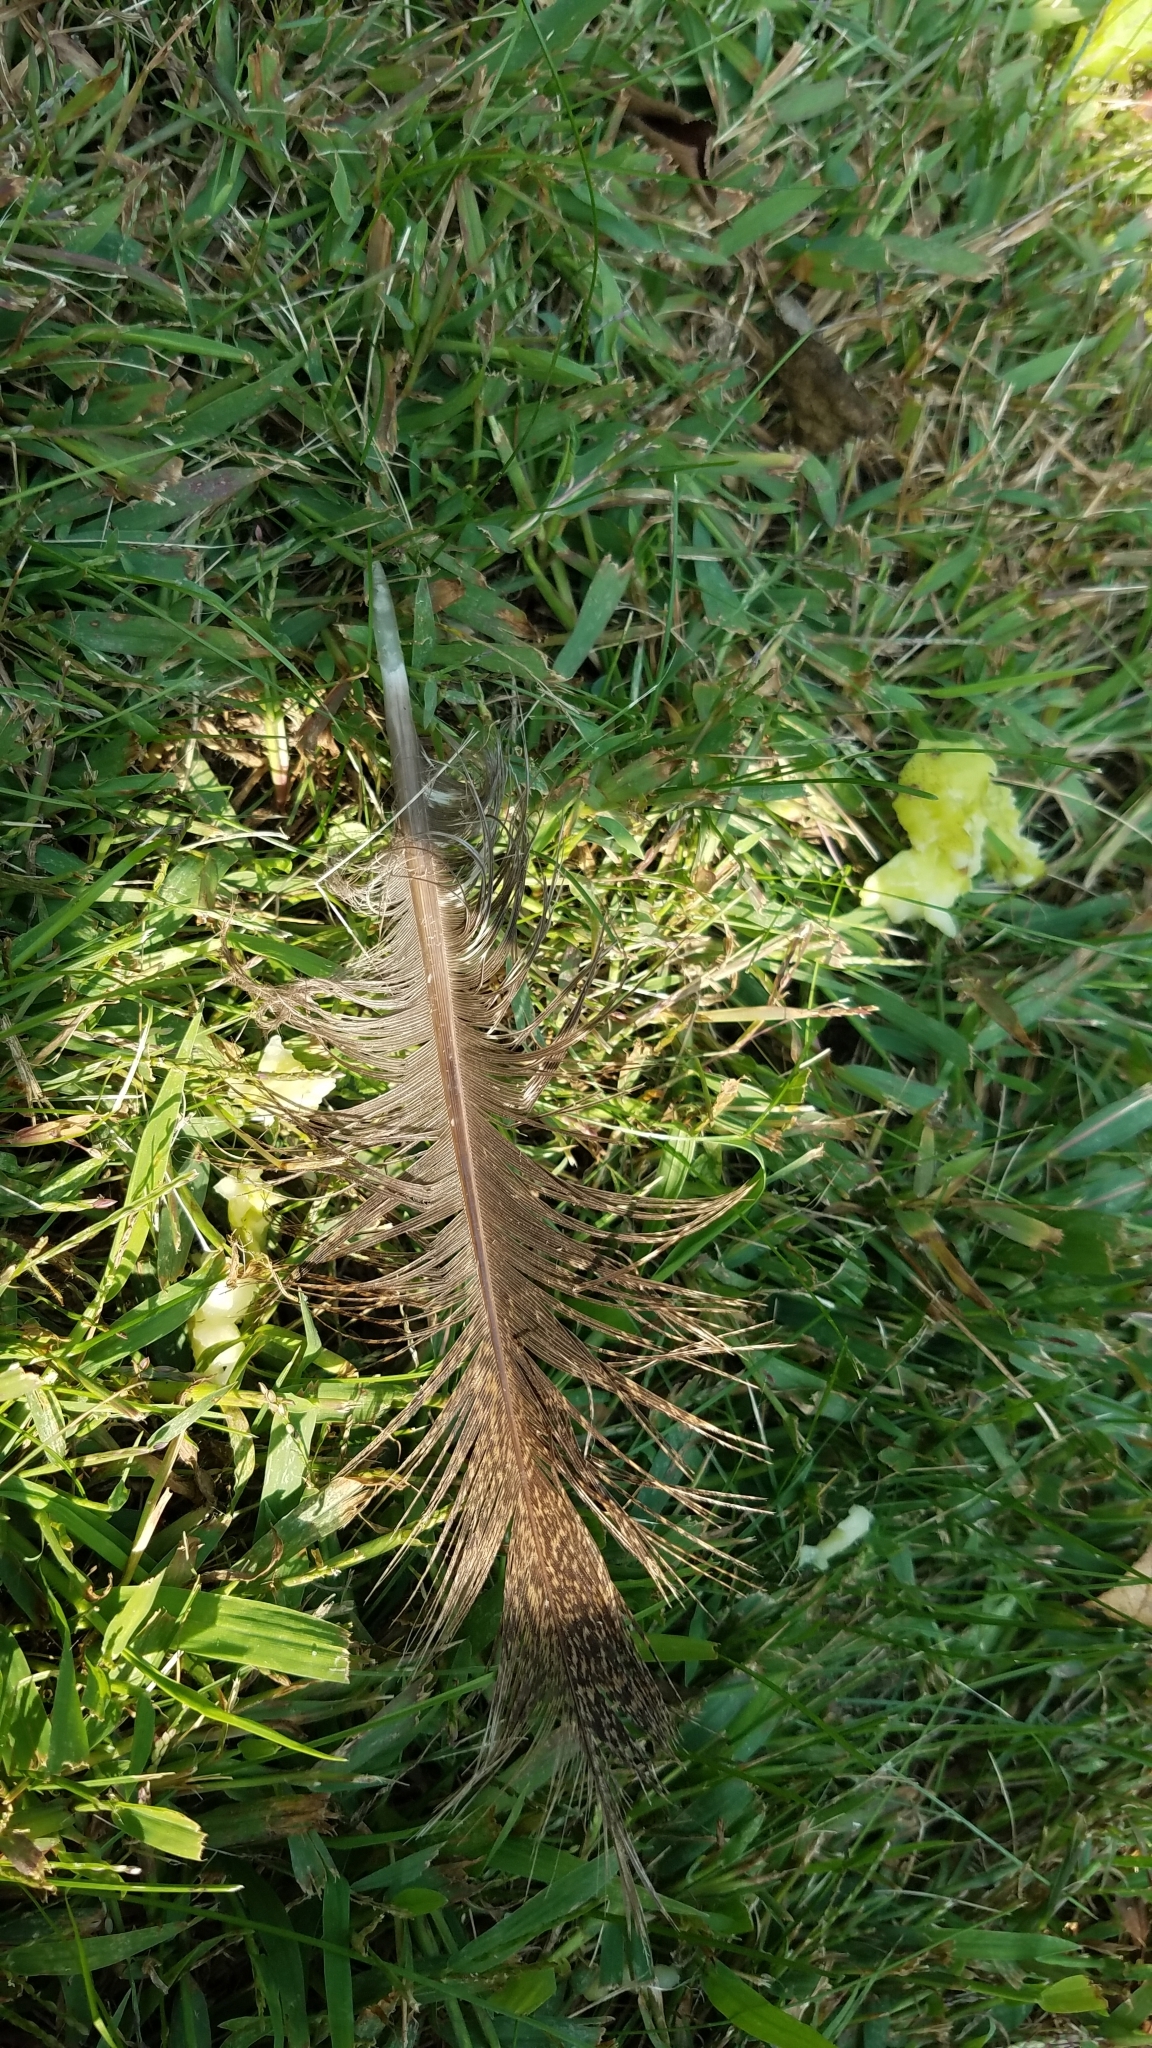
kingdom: Animalia
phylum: Chordata
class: Aves
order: Galliformes
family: Phasianidae
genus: Meleagris
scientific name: Meleagris gallopavo
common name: Wild turkey
